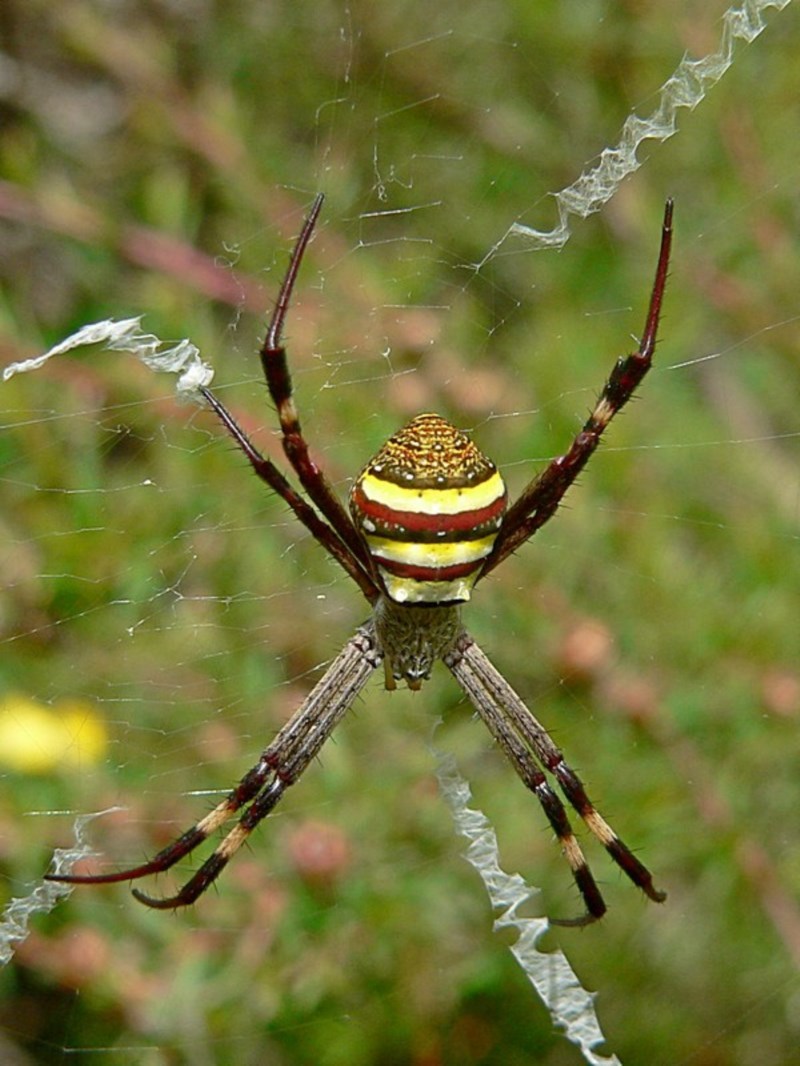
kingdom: Animalia
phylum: Arthropoda
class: Arachnida
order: Araneae
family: Araneidae
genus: Argiope
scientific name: Argiope keyserlingi
